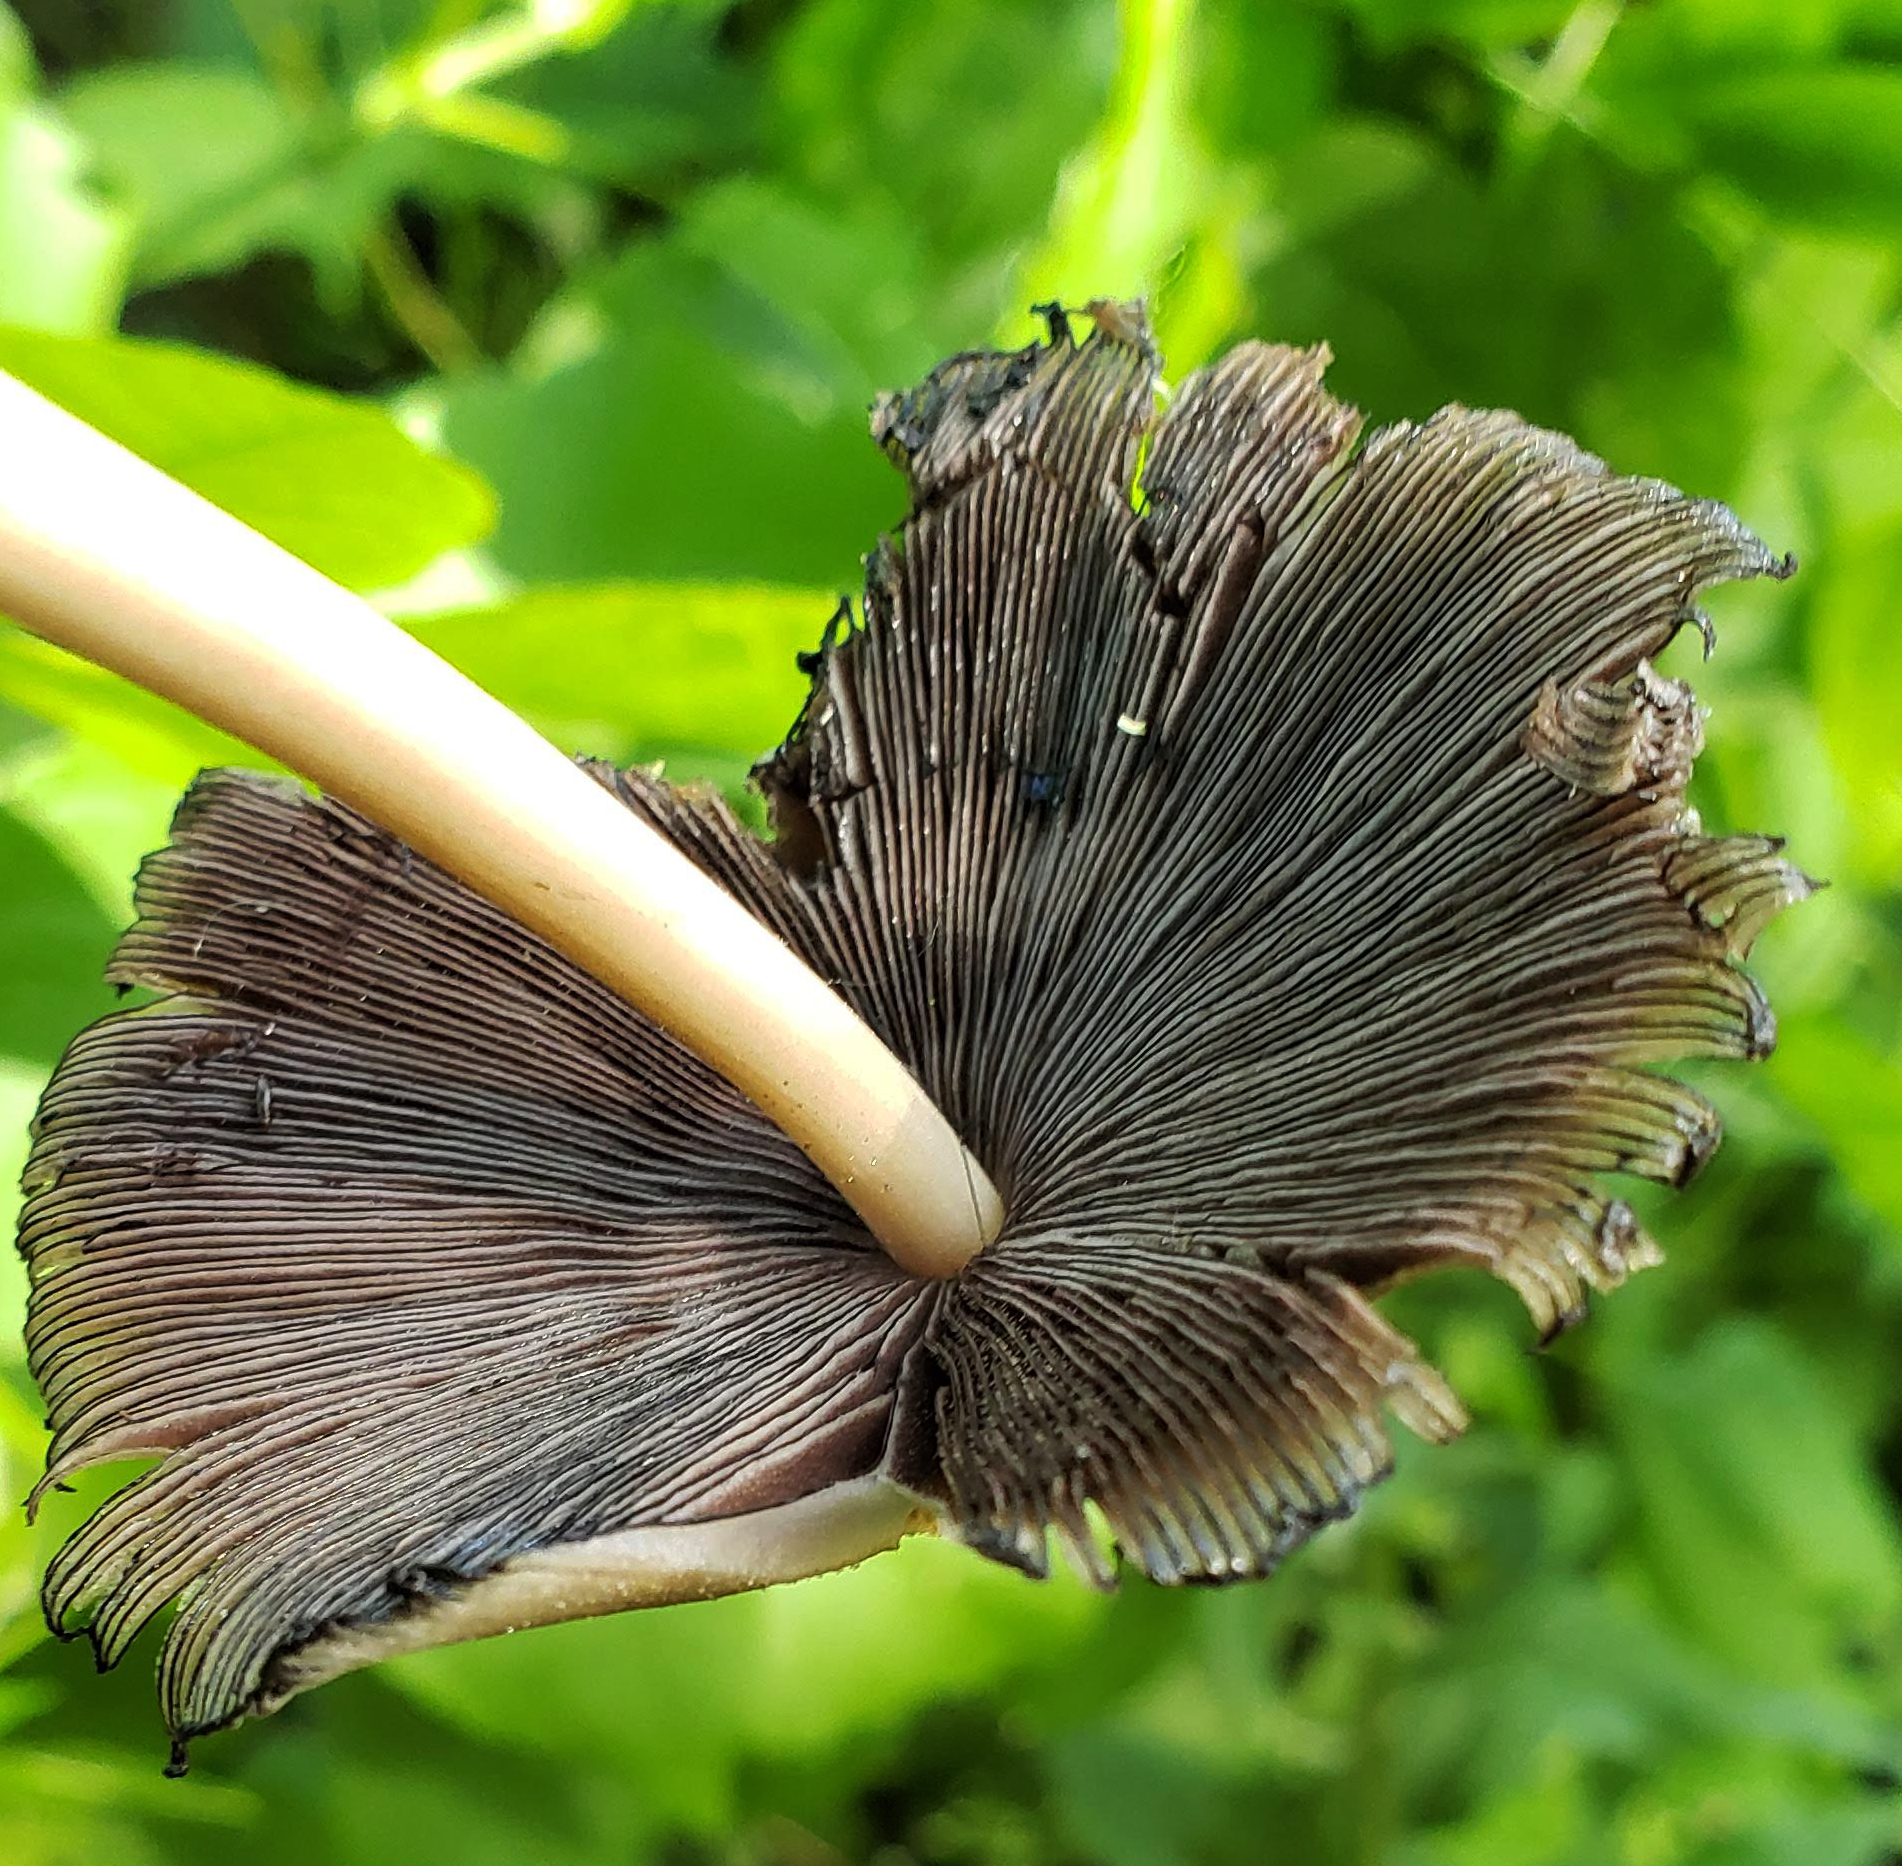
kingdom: Fungi
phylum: Basidiomycota
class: Agaricomycetes
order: Agaricales
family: Psathyrellaceae
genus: Coprinellus
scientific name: Coprinellus micaceus
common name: Glistening ink-cap
